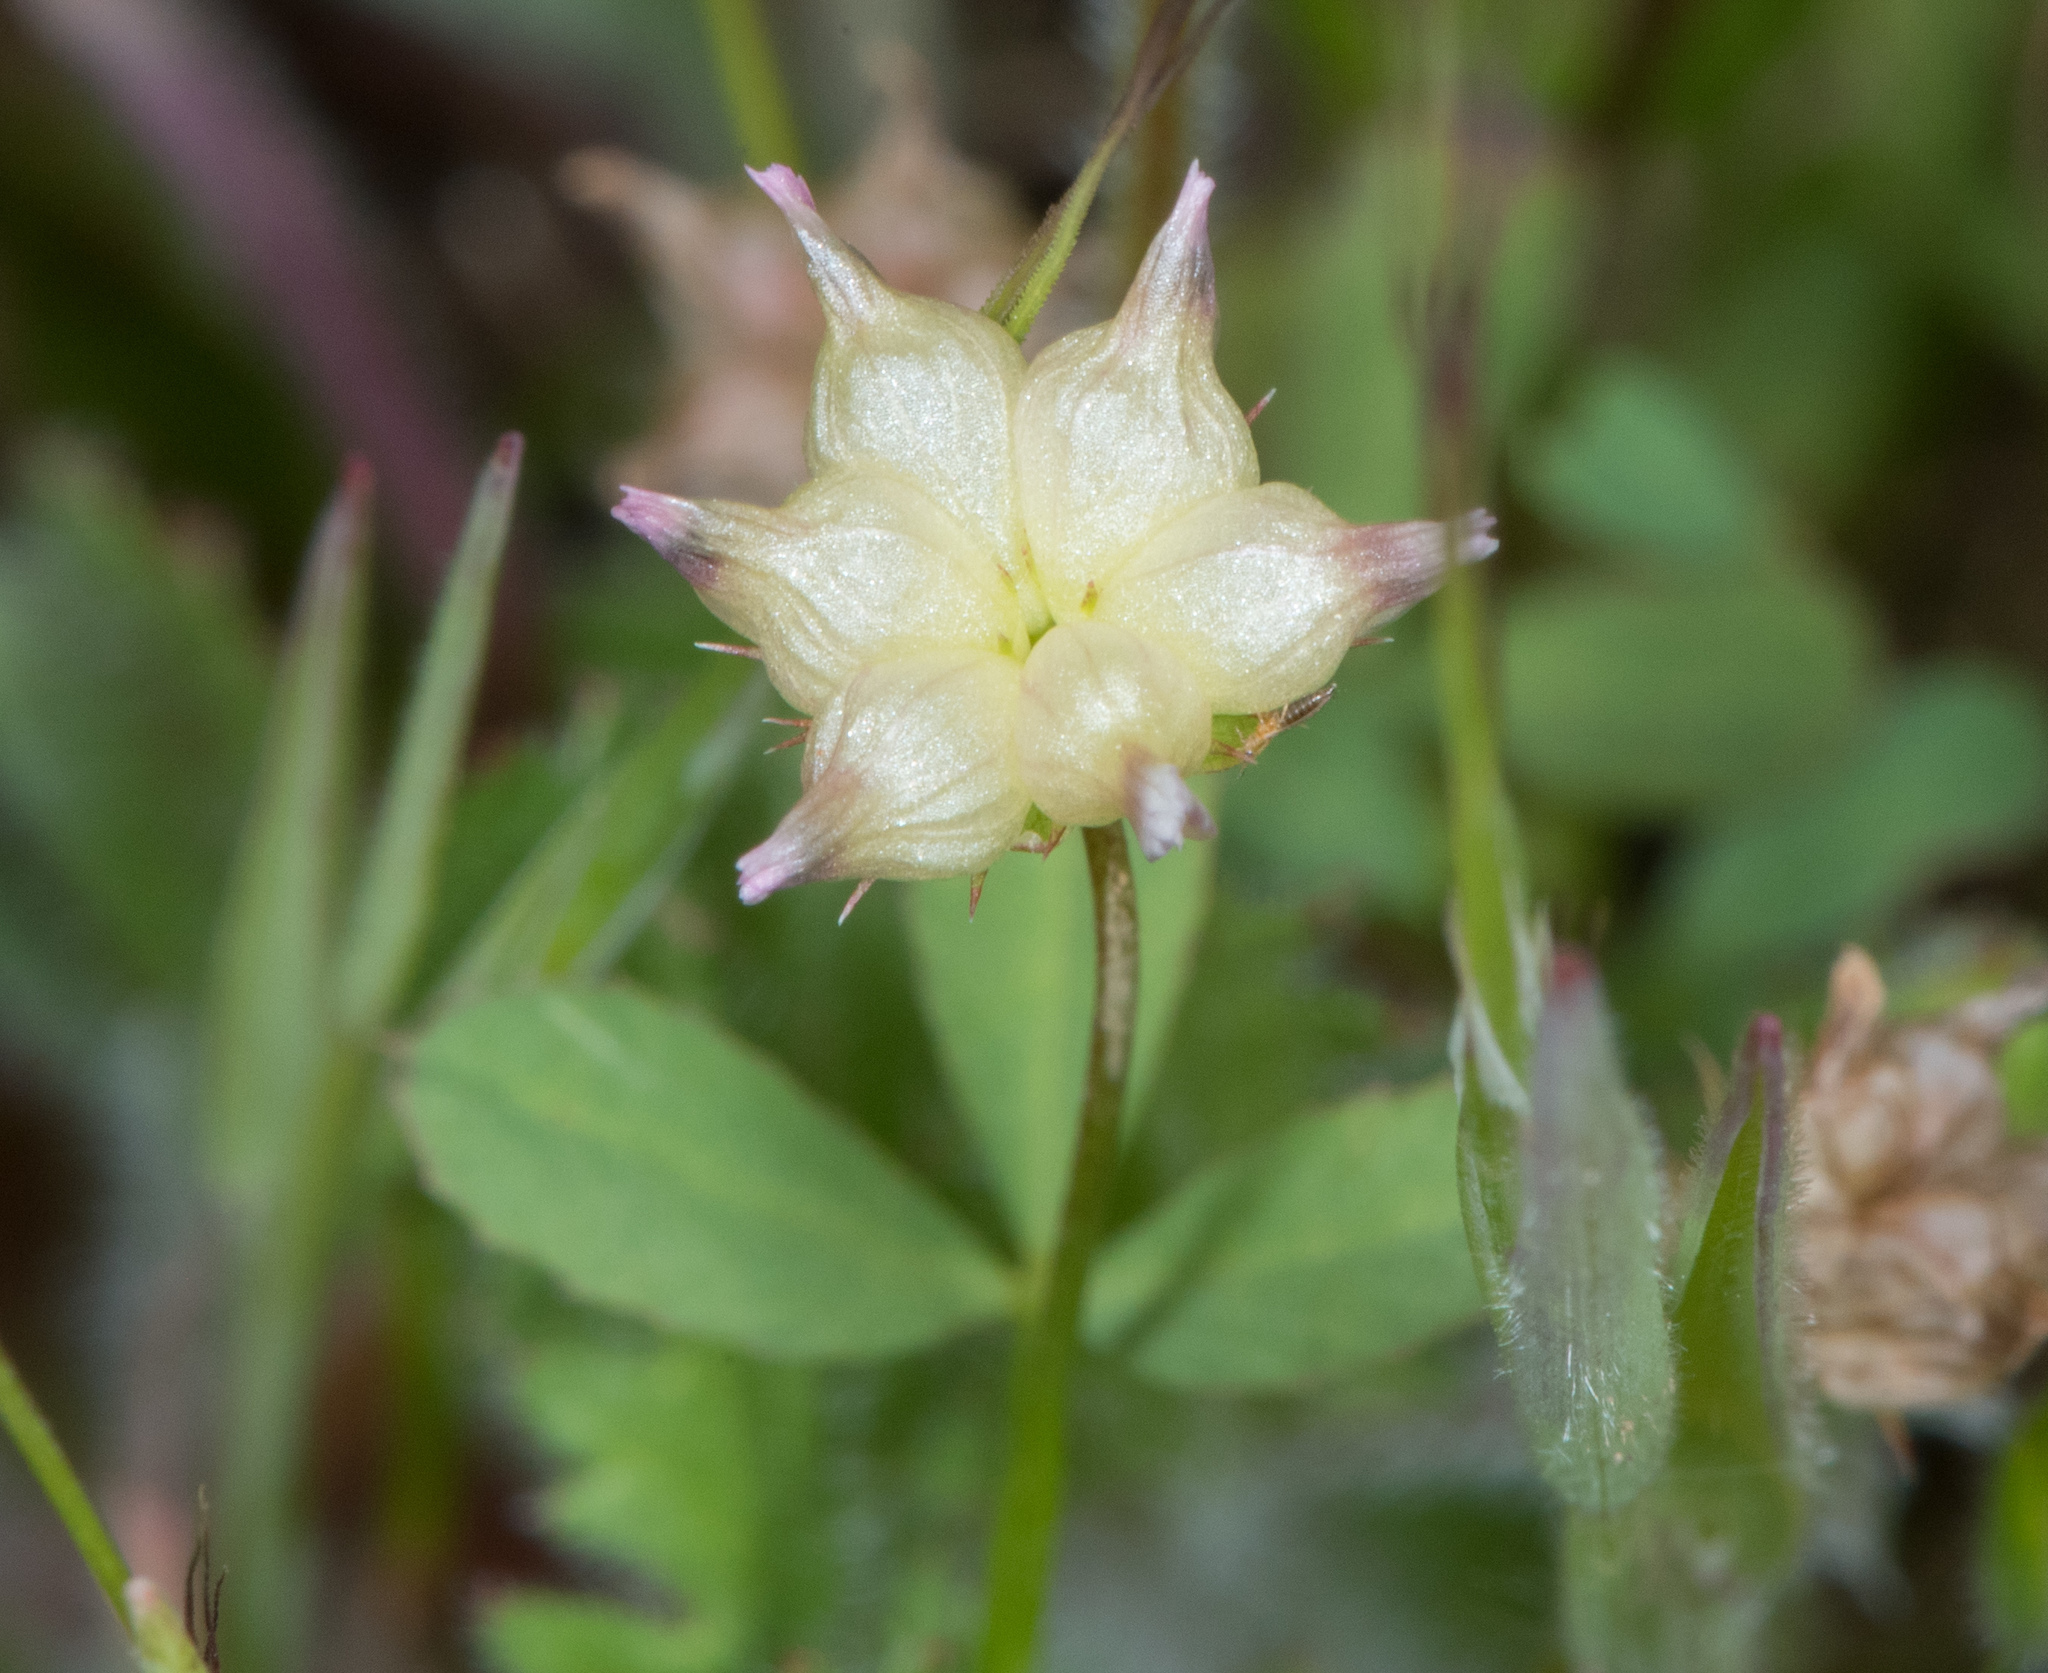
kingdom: Plantae
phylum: Tracheophyta
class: Magnoliopsida
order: Fabales
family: Fabaceae
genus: Trifolium
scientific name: Trifolium depauperatum
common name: Poverty clover
